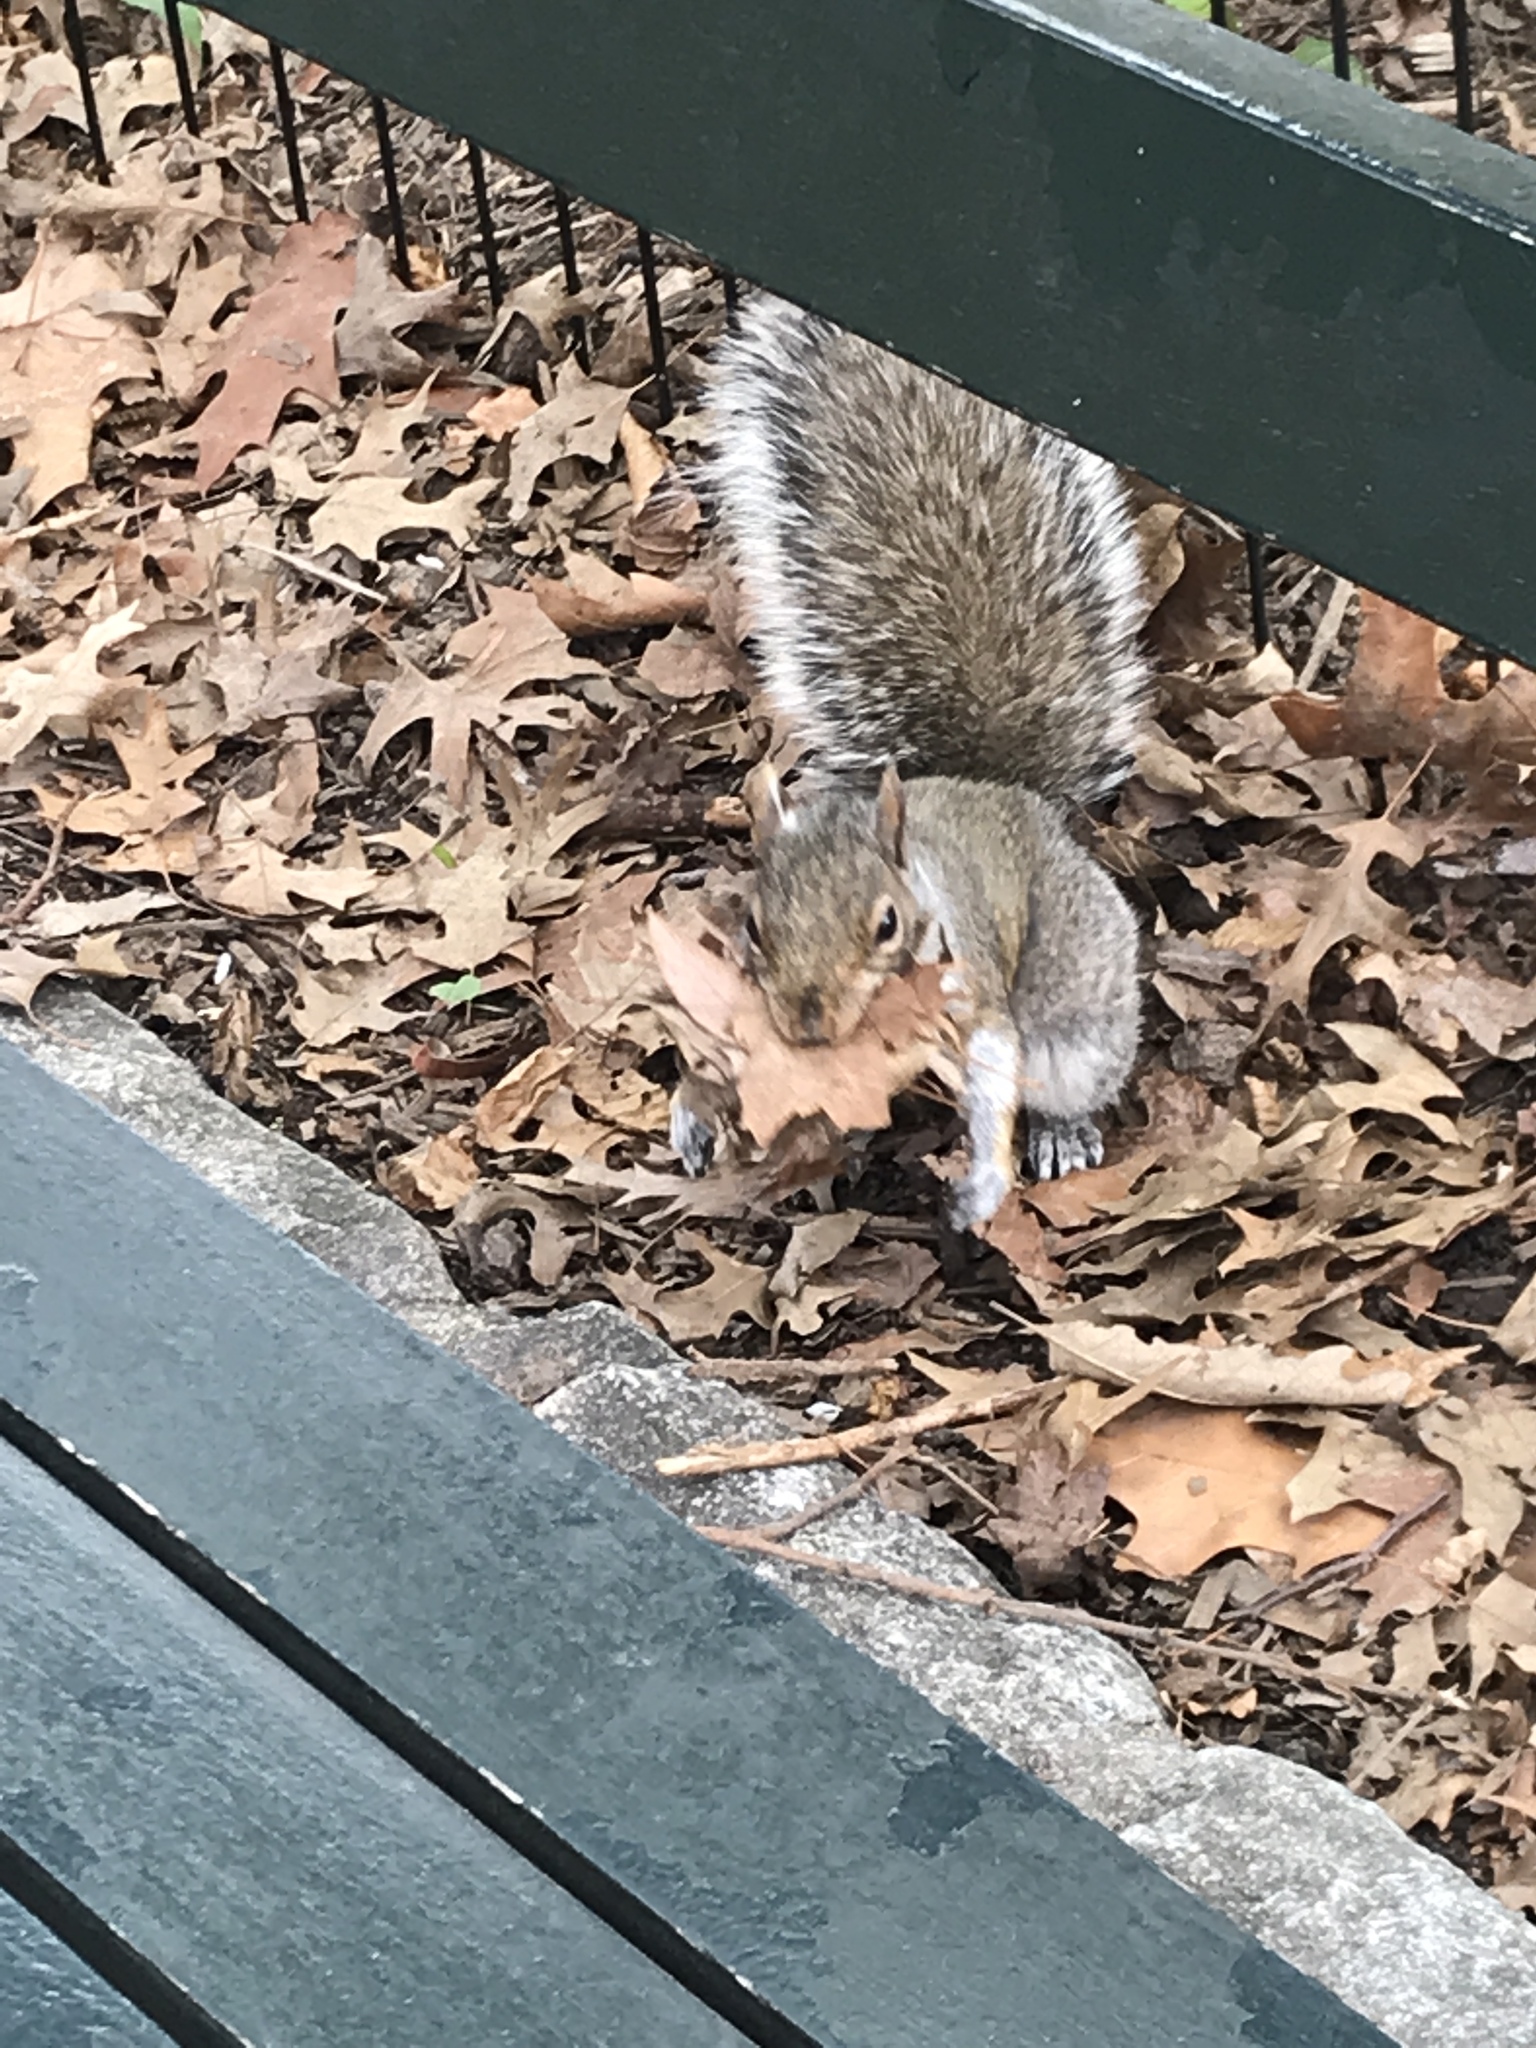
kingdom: Animalia
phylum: Chordata
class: Mammalia
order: Rodentia
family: Sciuridae
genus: Sciurus
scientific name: Sciurus carolinensis
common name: Eastern gray squirrel
